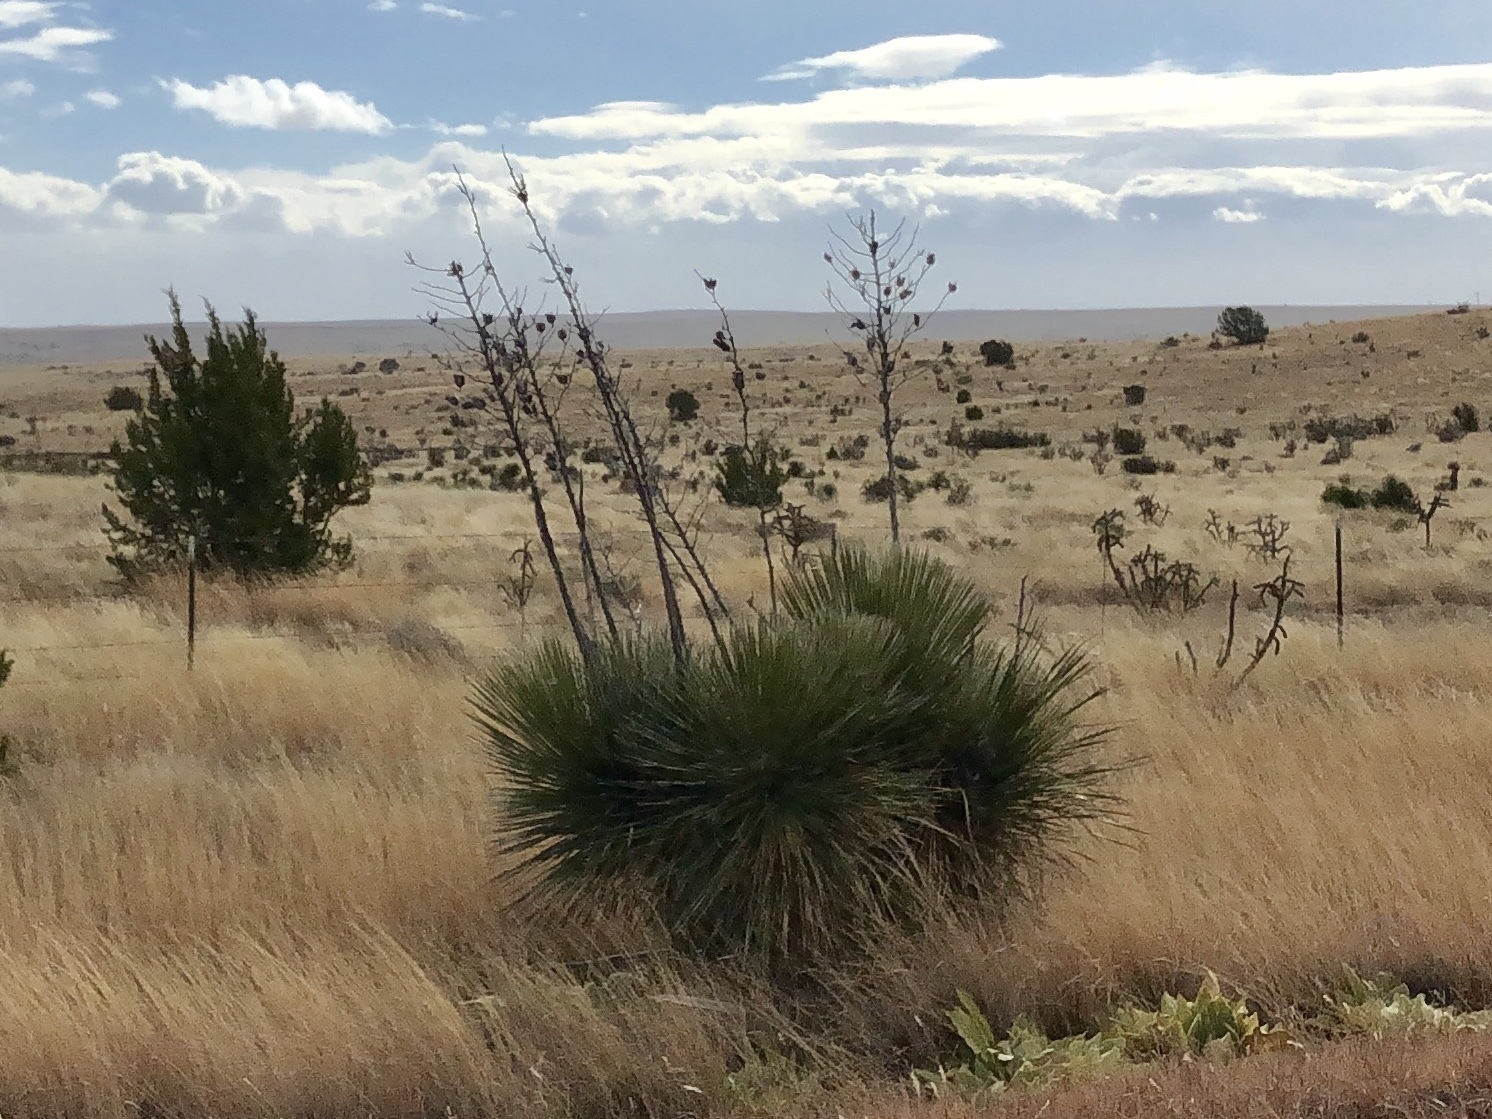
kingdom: Plantae
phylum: Tracheophyta
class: Liliopsida
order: Asparagales
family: Asparagaceae
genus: Yucca
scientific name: Yucca elata
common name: Palmella
